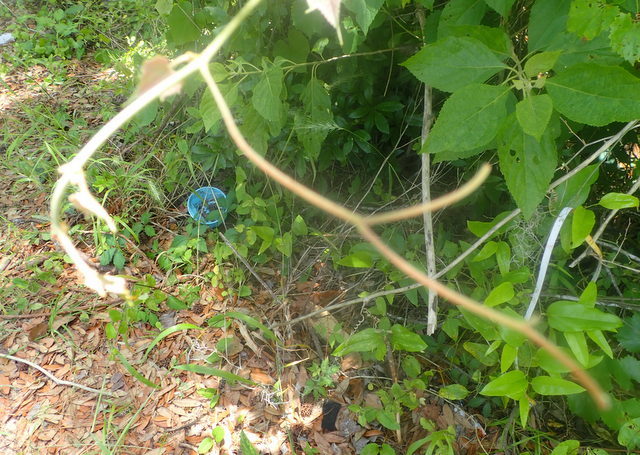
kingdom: Plantae
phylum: Tracheophyta
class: Magnoliopsida
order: Vitales
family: Vitaceae
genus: Vitis
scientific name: Vitis cinerea
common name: Ashy grape
